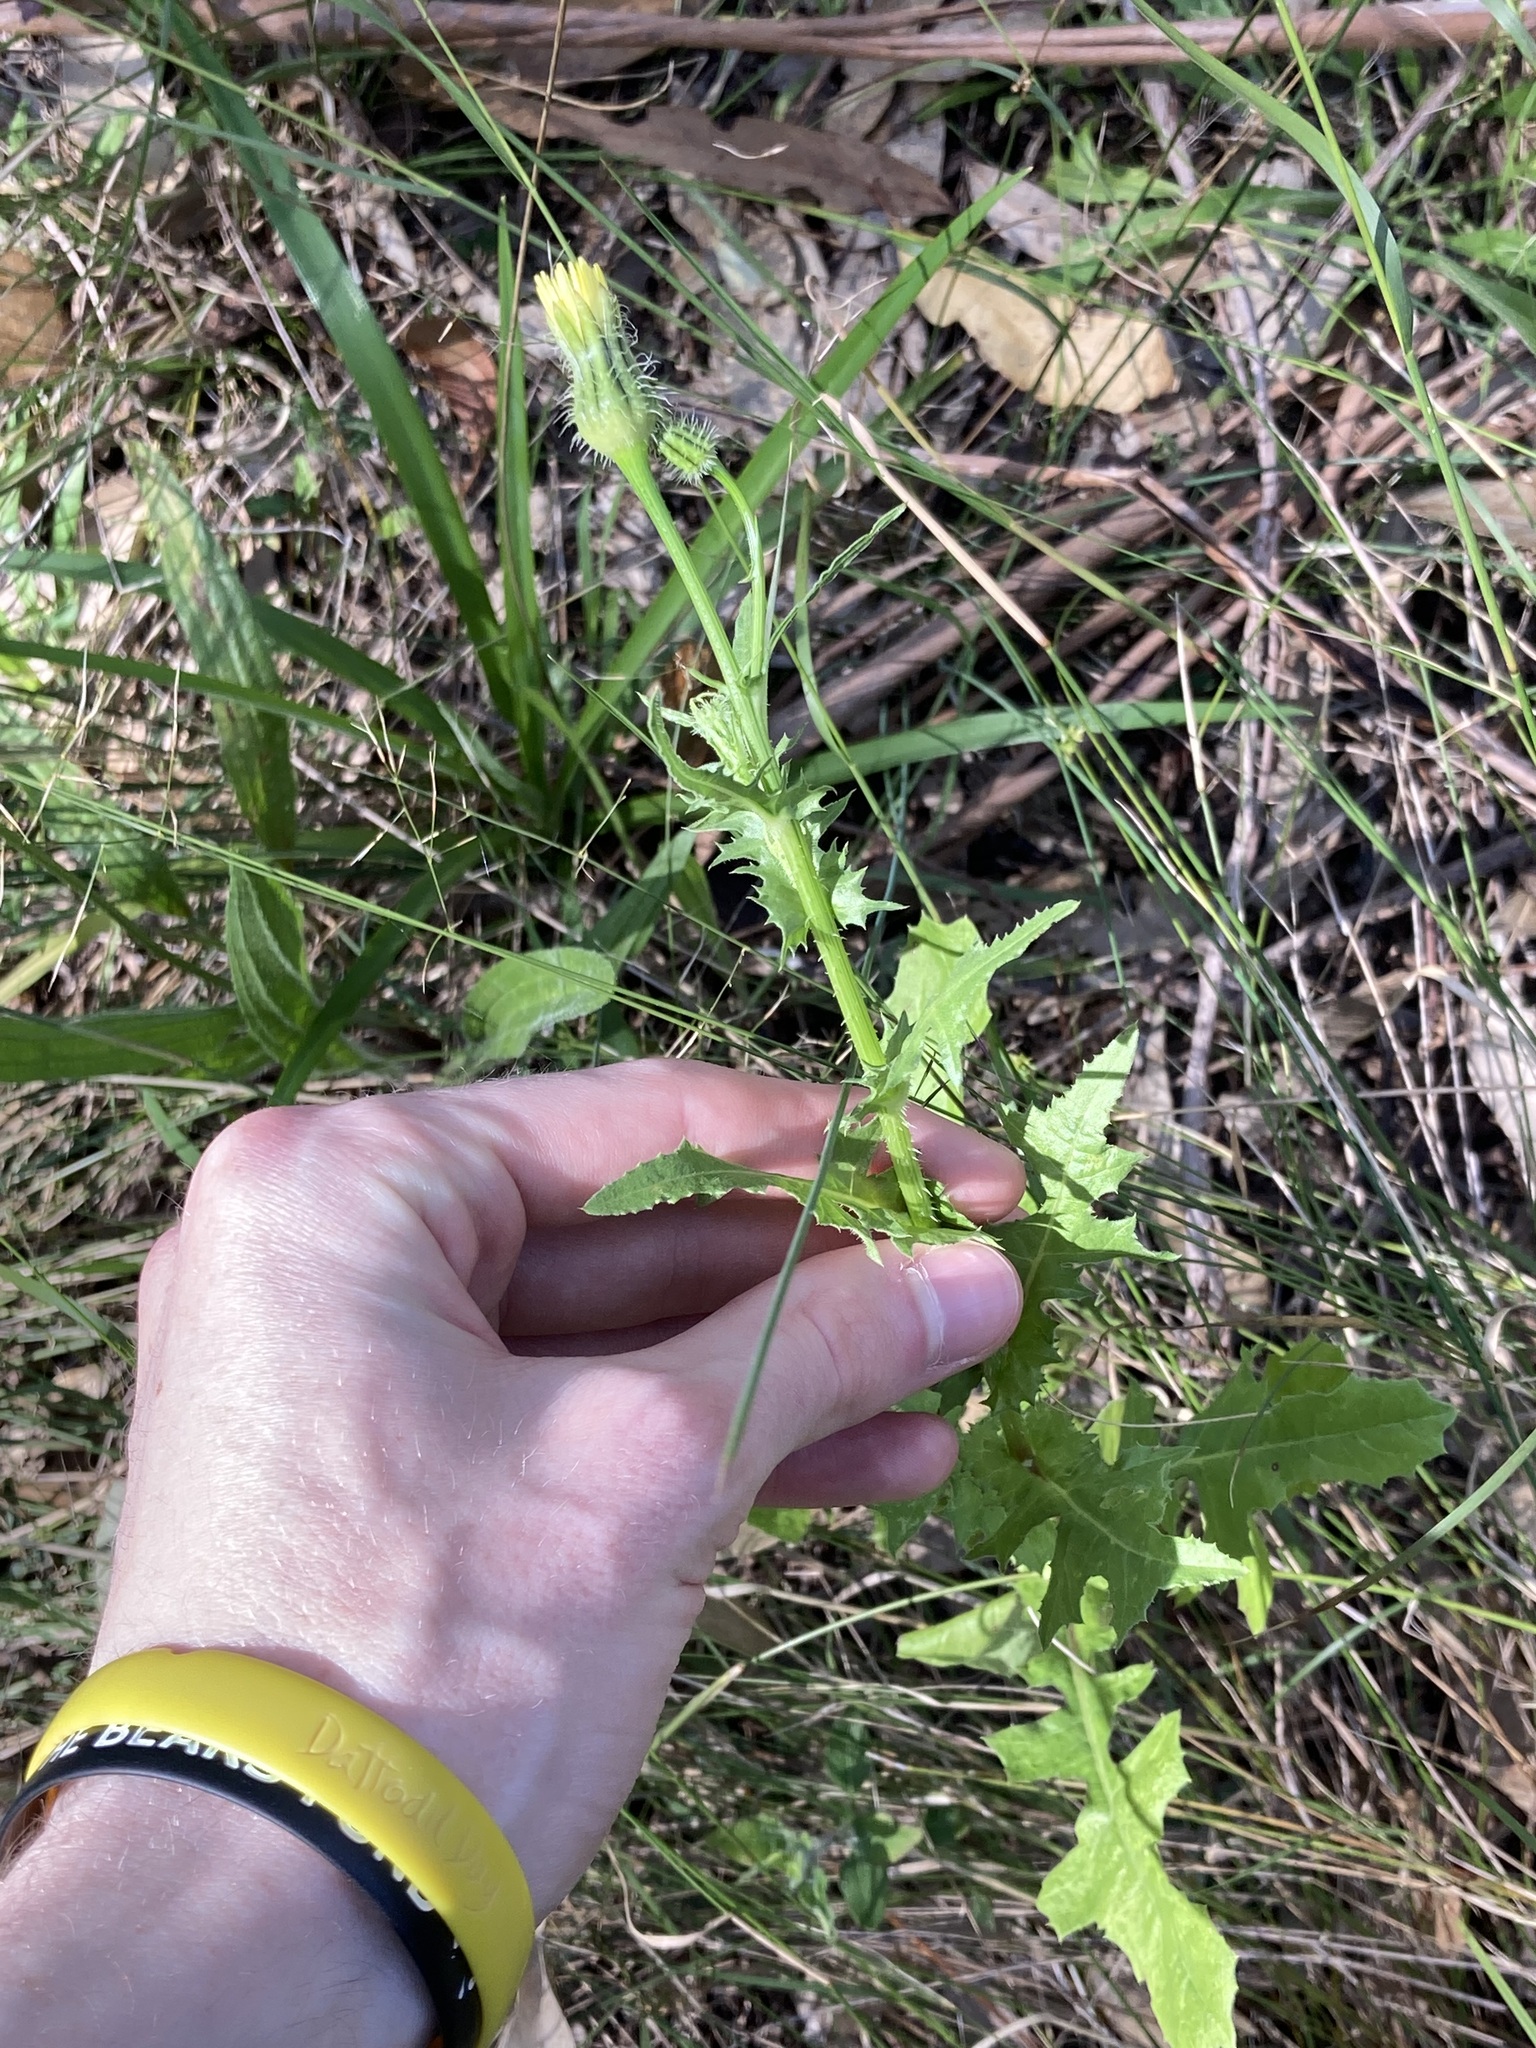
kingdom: Plantae
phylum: Tracheophyta
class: Magnoliopsida
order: Asterales
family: Asteraceae
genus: Urospermum
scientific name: Urospermum picroides
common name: False hawkbit
